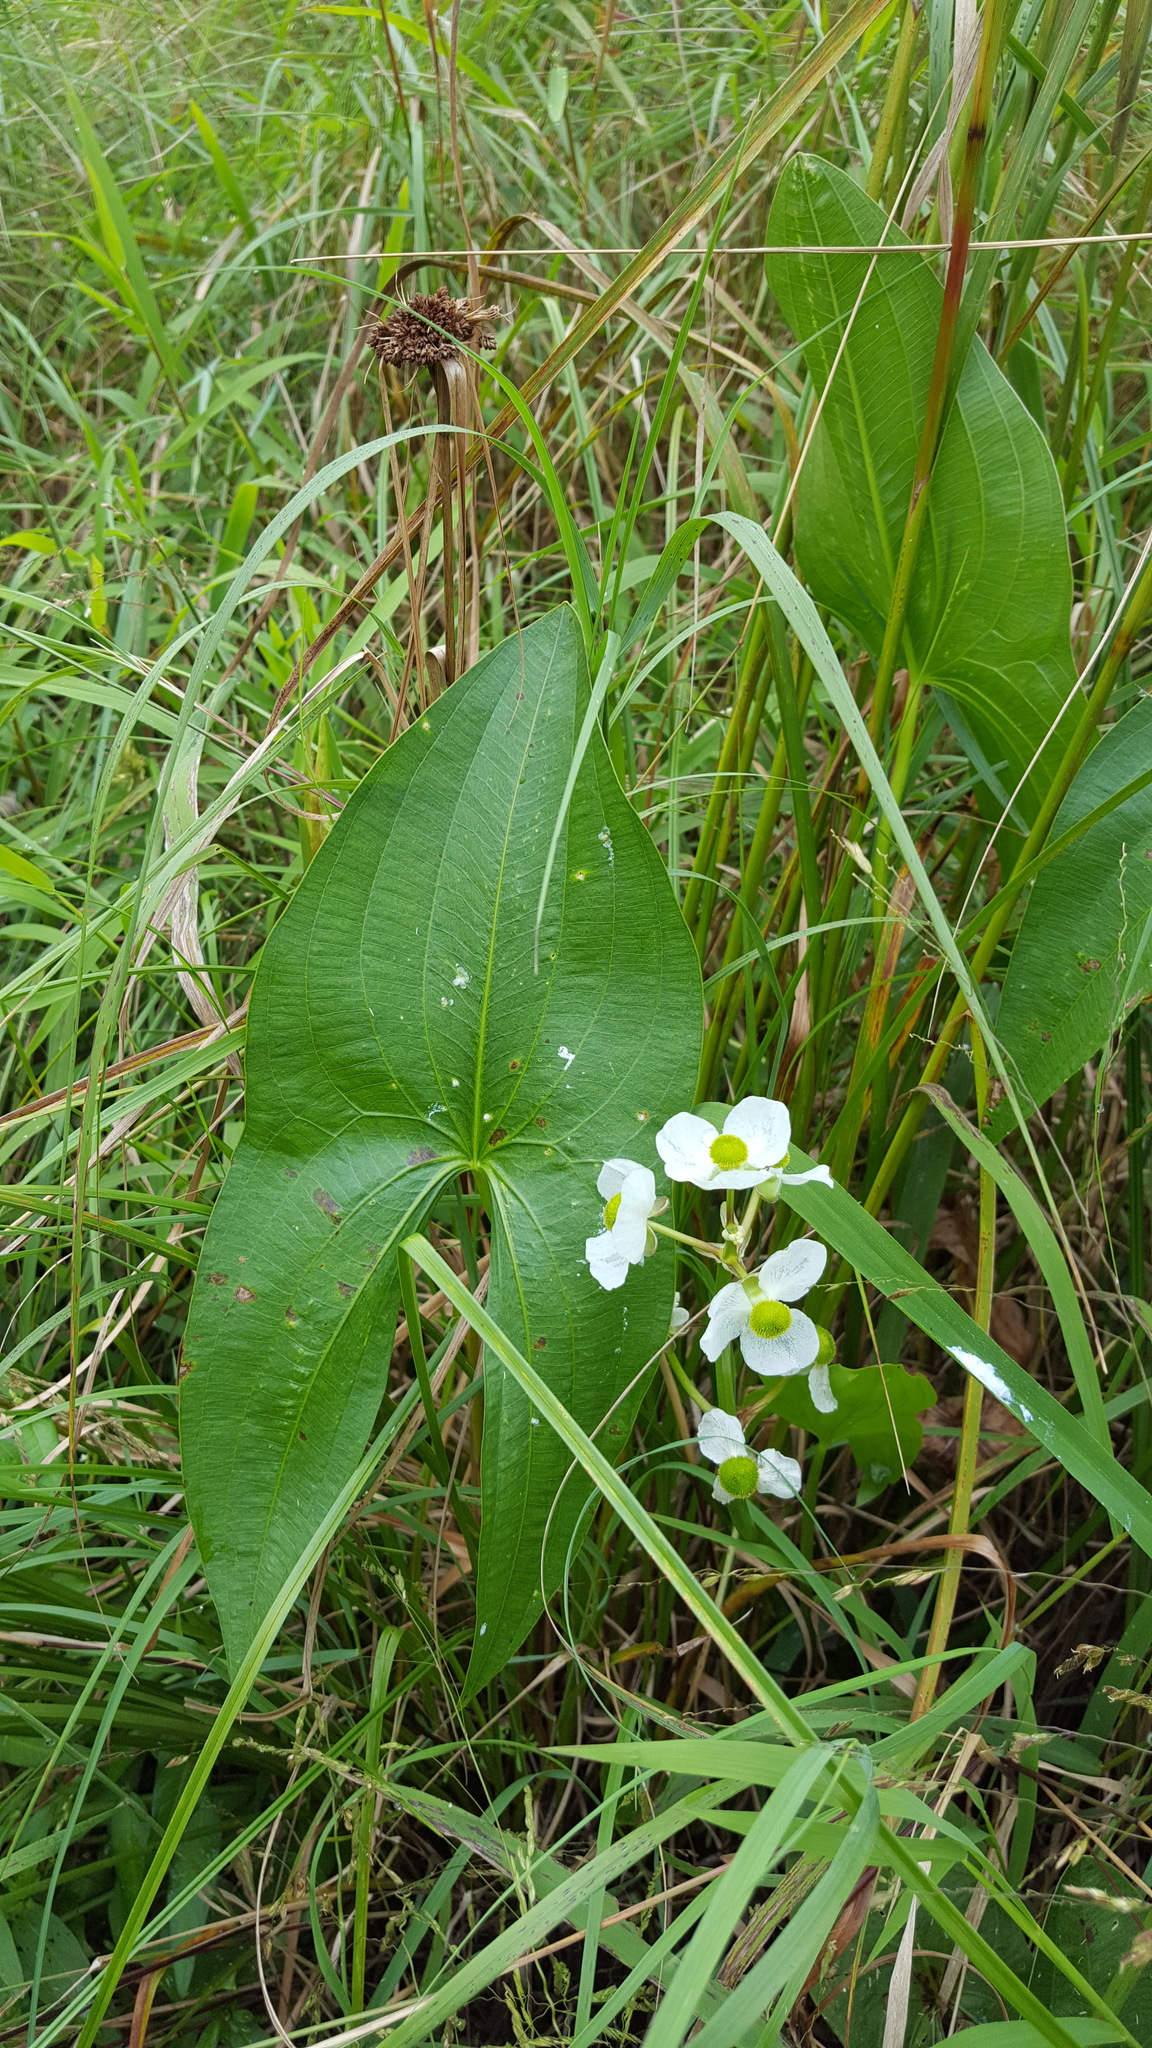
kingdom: Plantae
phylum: Tracheophyta
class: Liliopsida
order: Alismatales
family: Alismataceae
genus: Sagittaria
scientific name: Sagittaria latifolia
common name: Duck-potato
